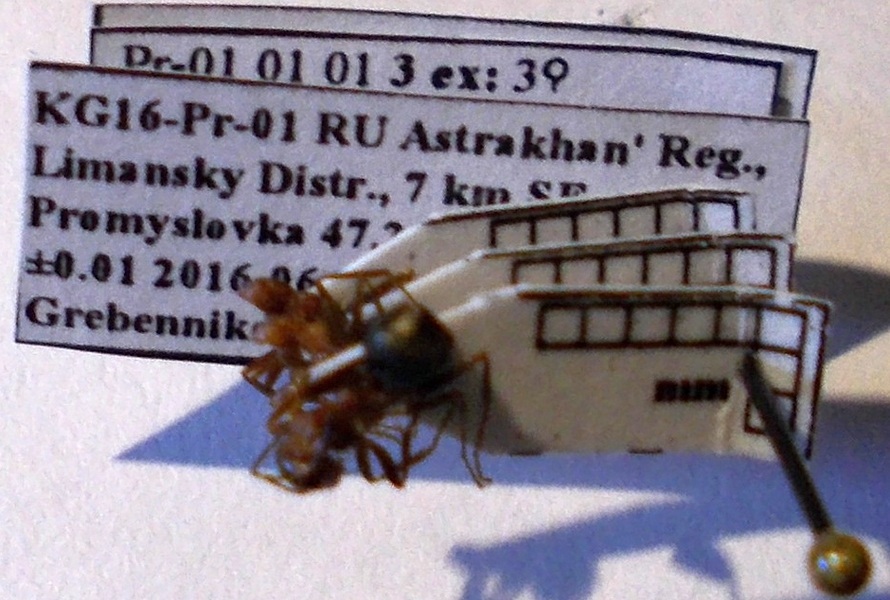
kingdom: Animalia
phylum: Arthropoda
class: Insecta
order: Hymenoptera
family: Formicidae
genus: Formica
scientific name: Formica subpilosa
